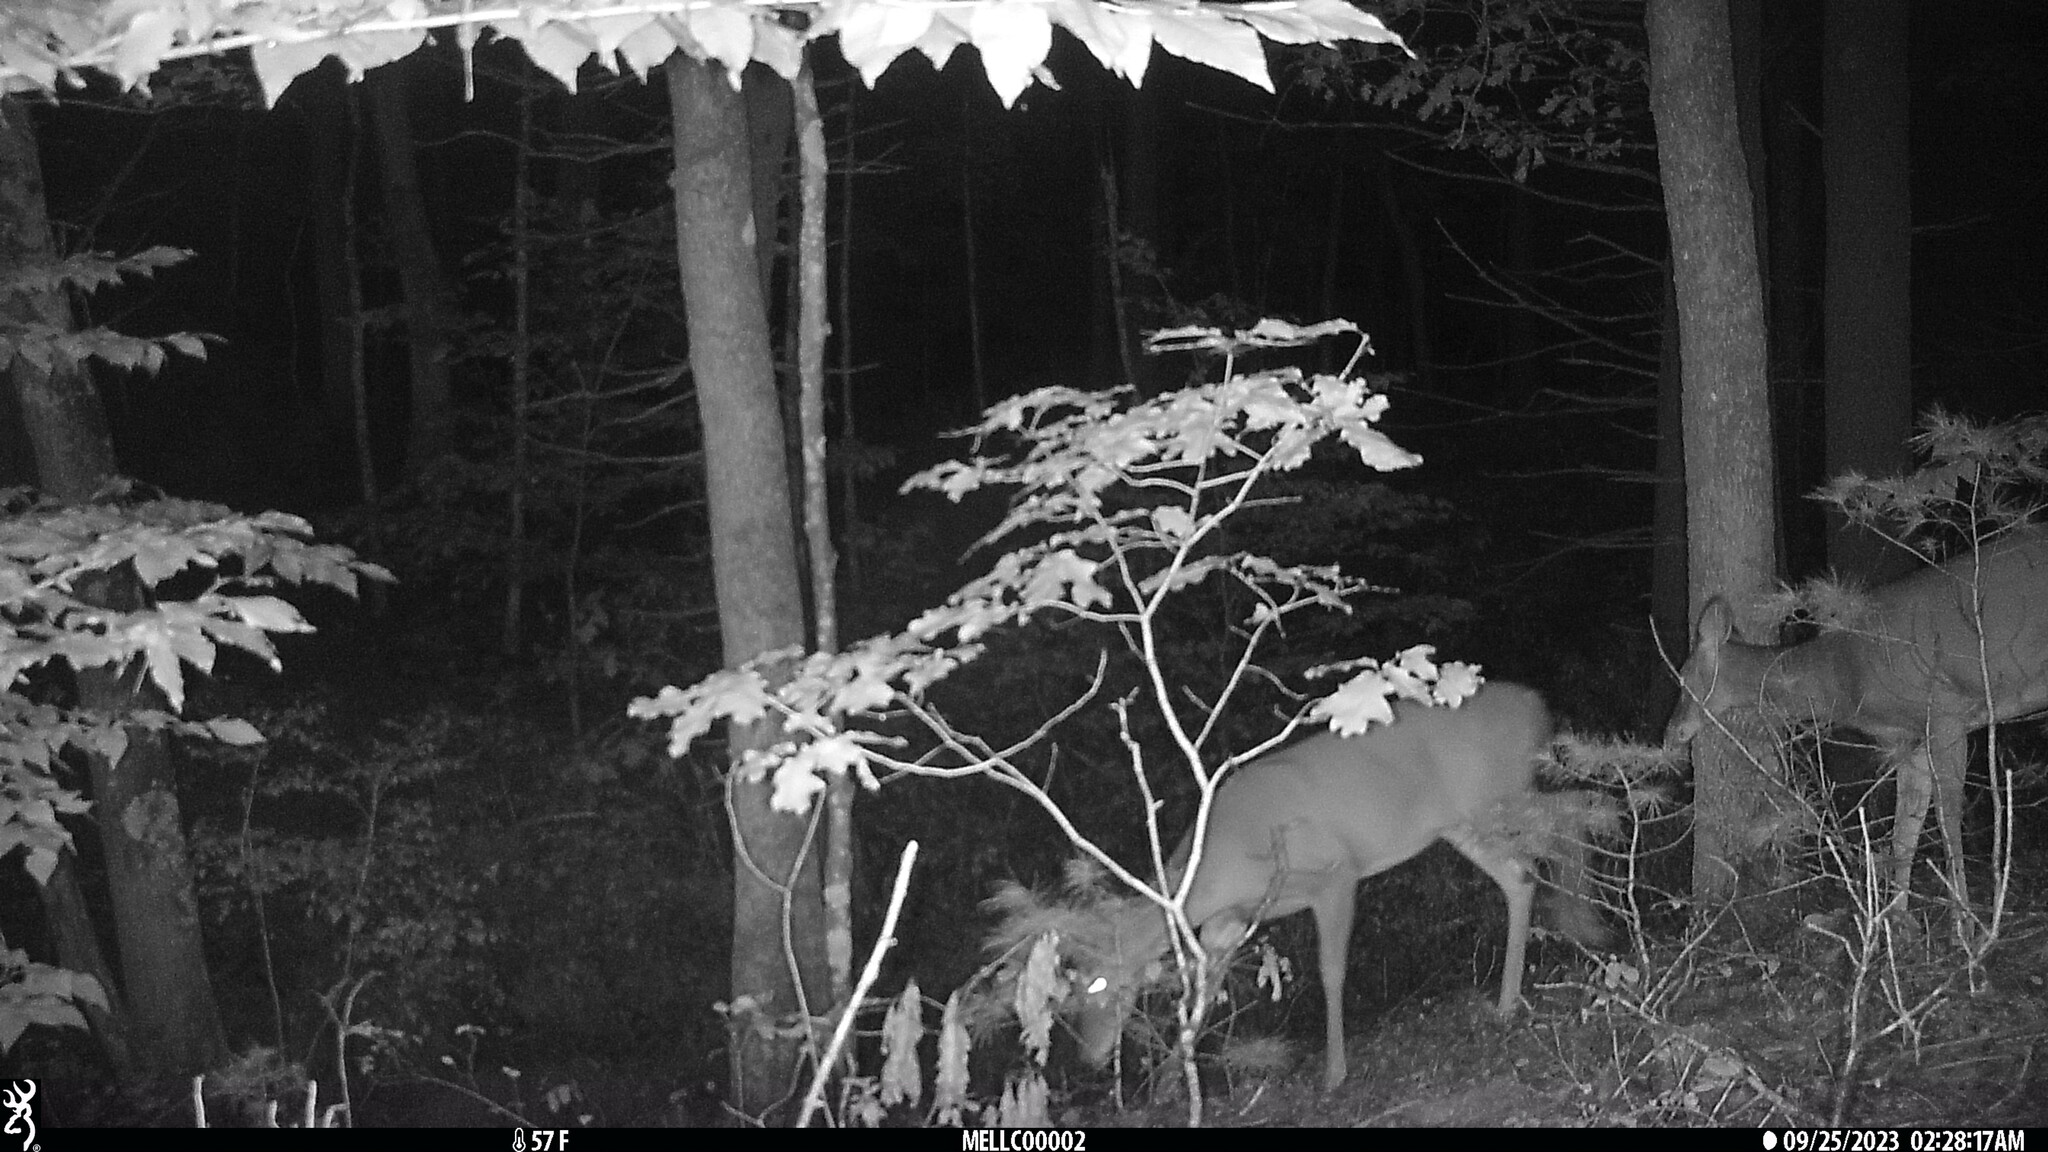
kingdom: Animalia
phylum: Chordata
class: Mammalia
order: Artiodactyla
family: Cervidae
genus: Odocoileus
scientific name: Odocoileus virginianus
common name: White-tailed deer
